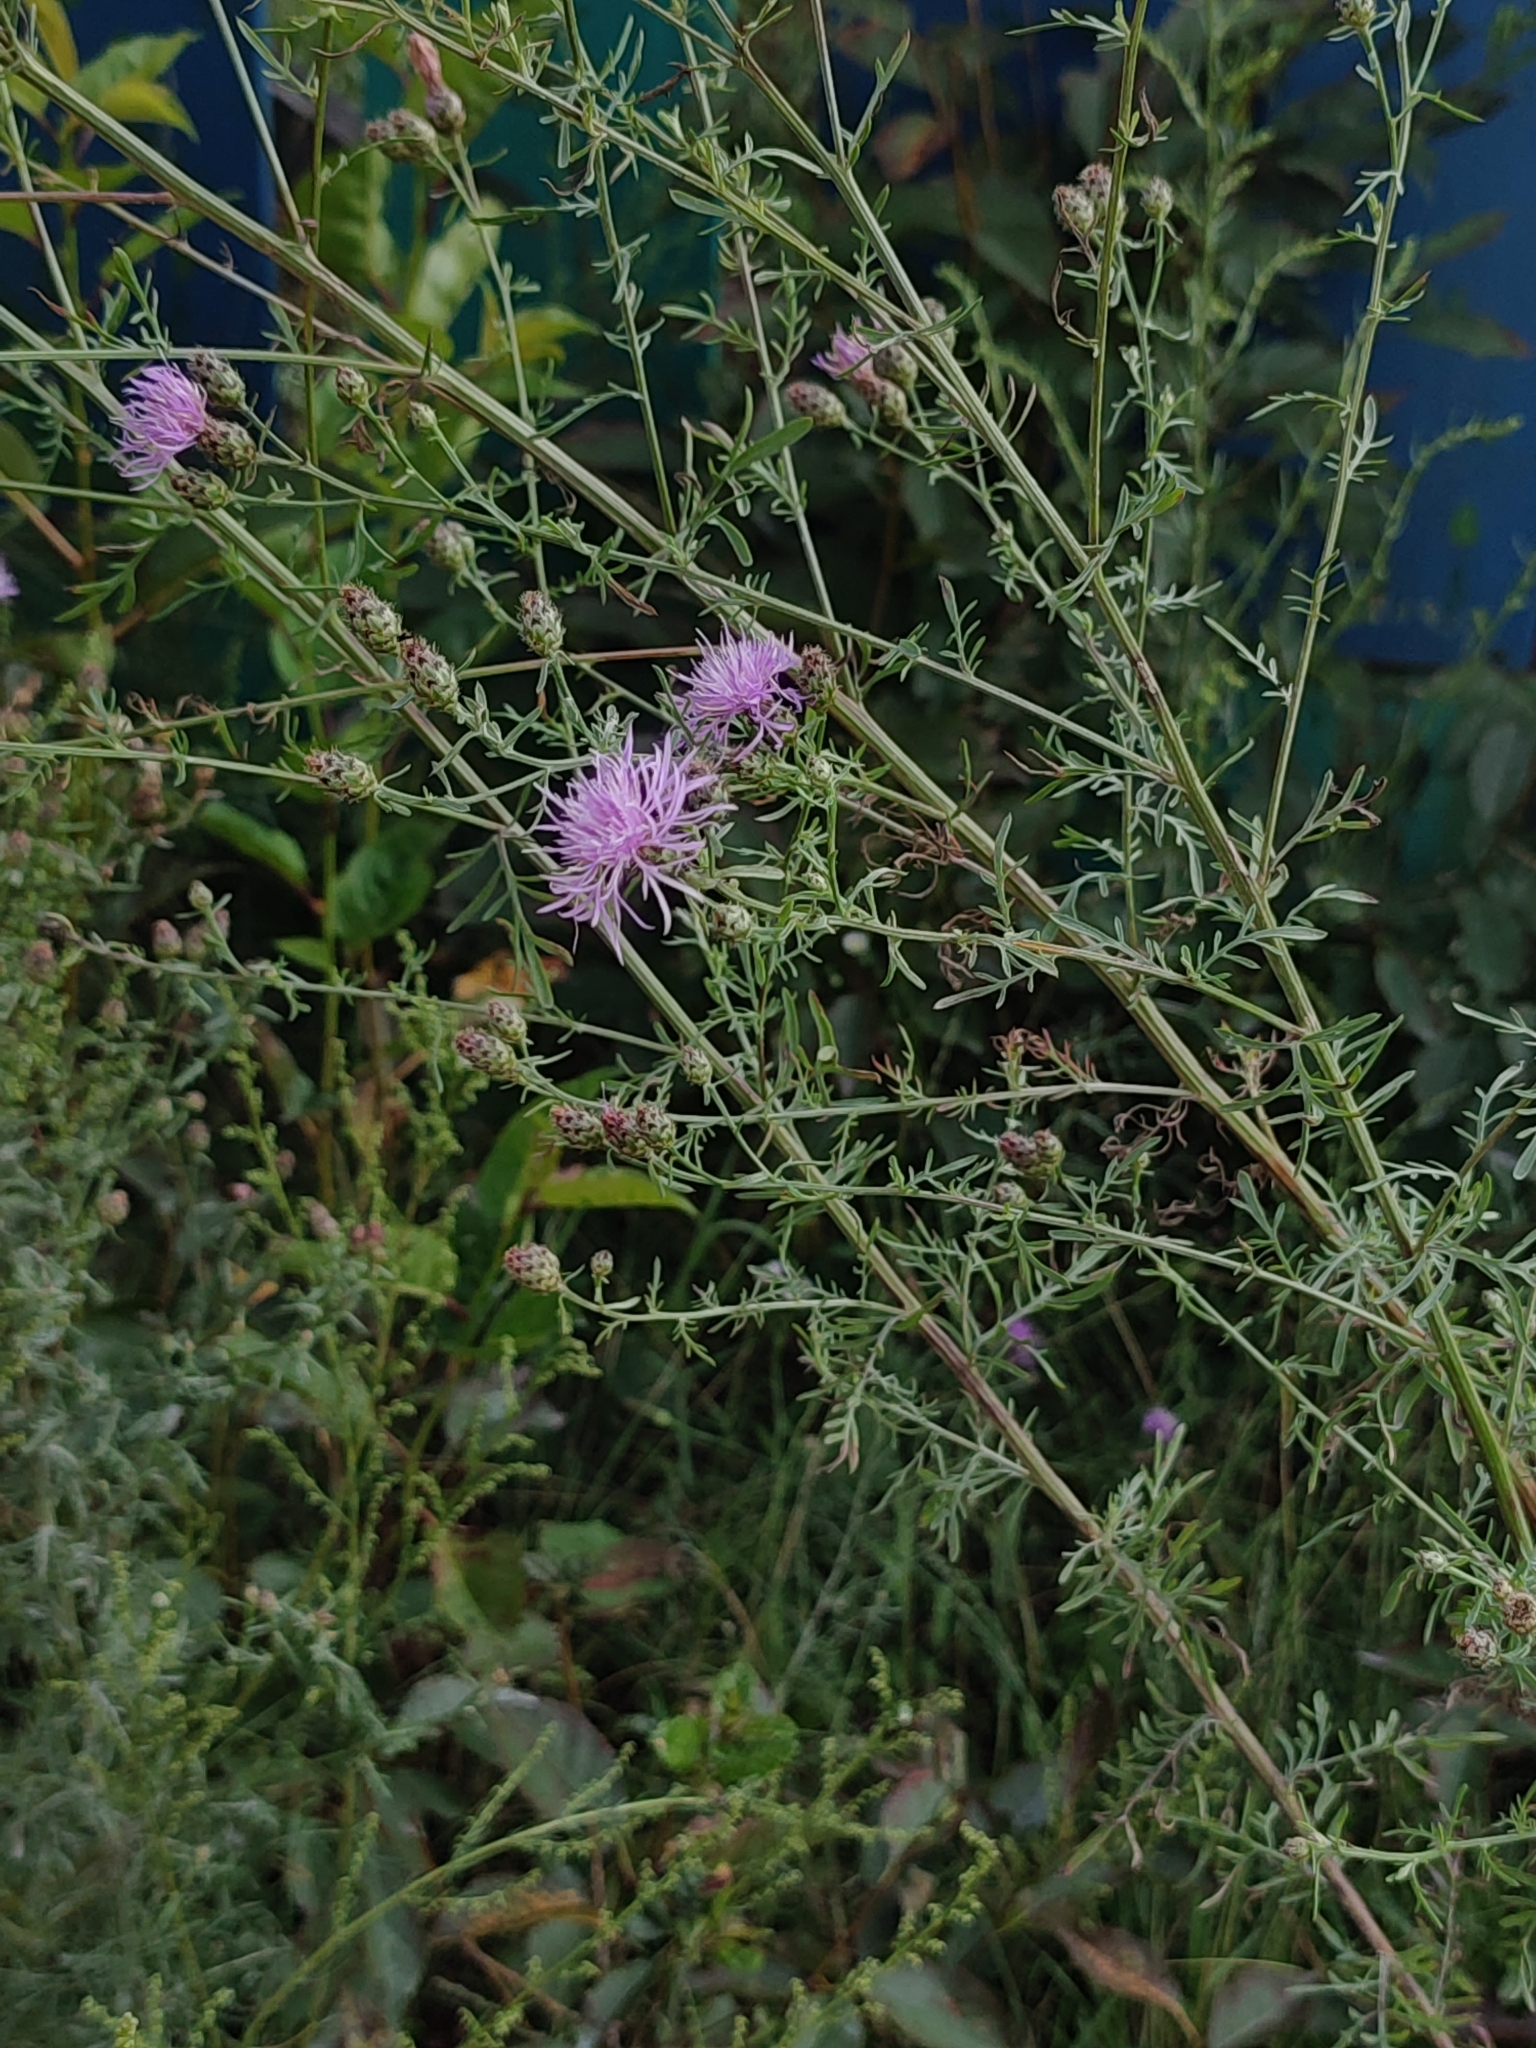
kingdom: Plantae
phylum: Tracheophyta
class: Magnoliopsida
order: Asterales
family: Asteraceae
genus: Centaurea
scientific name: Centaurea stoebe
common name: Spotted knapweed
